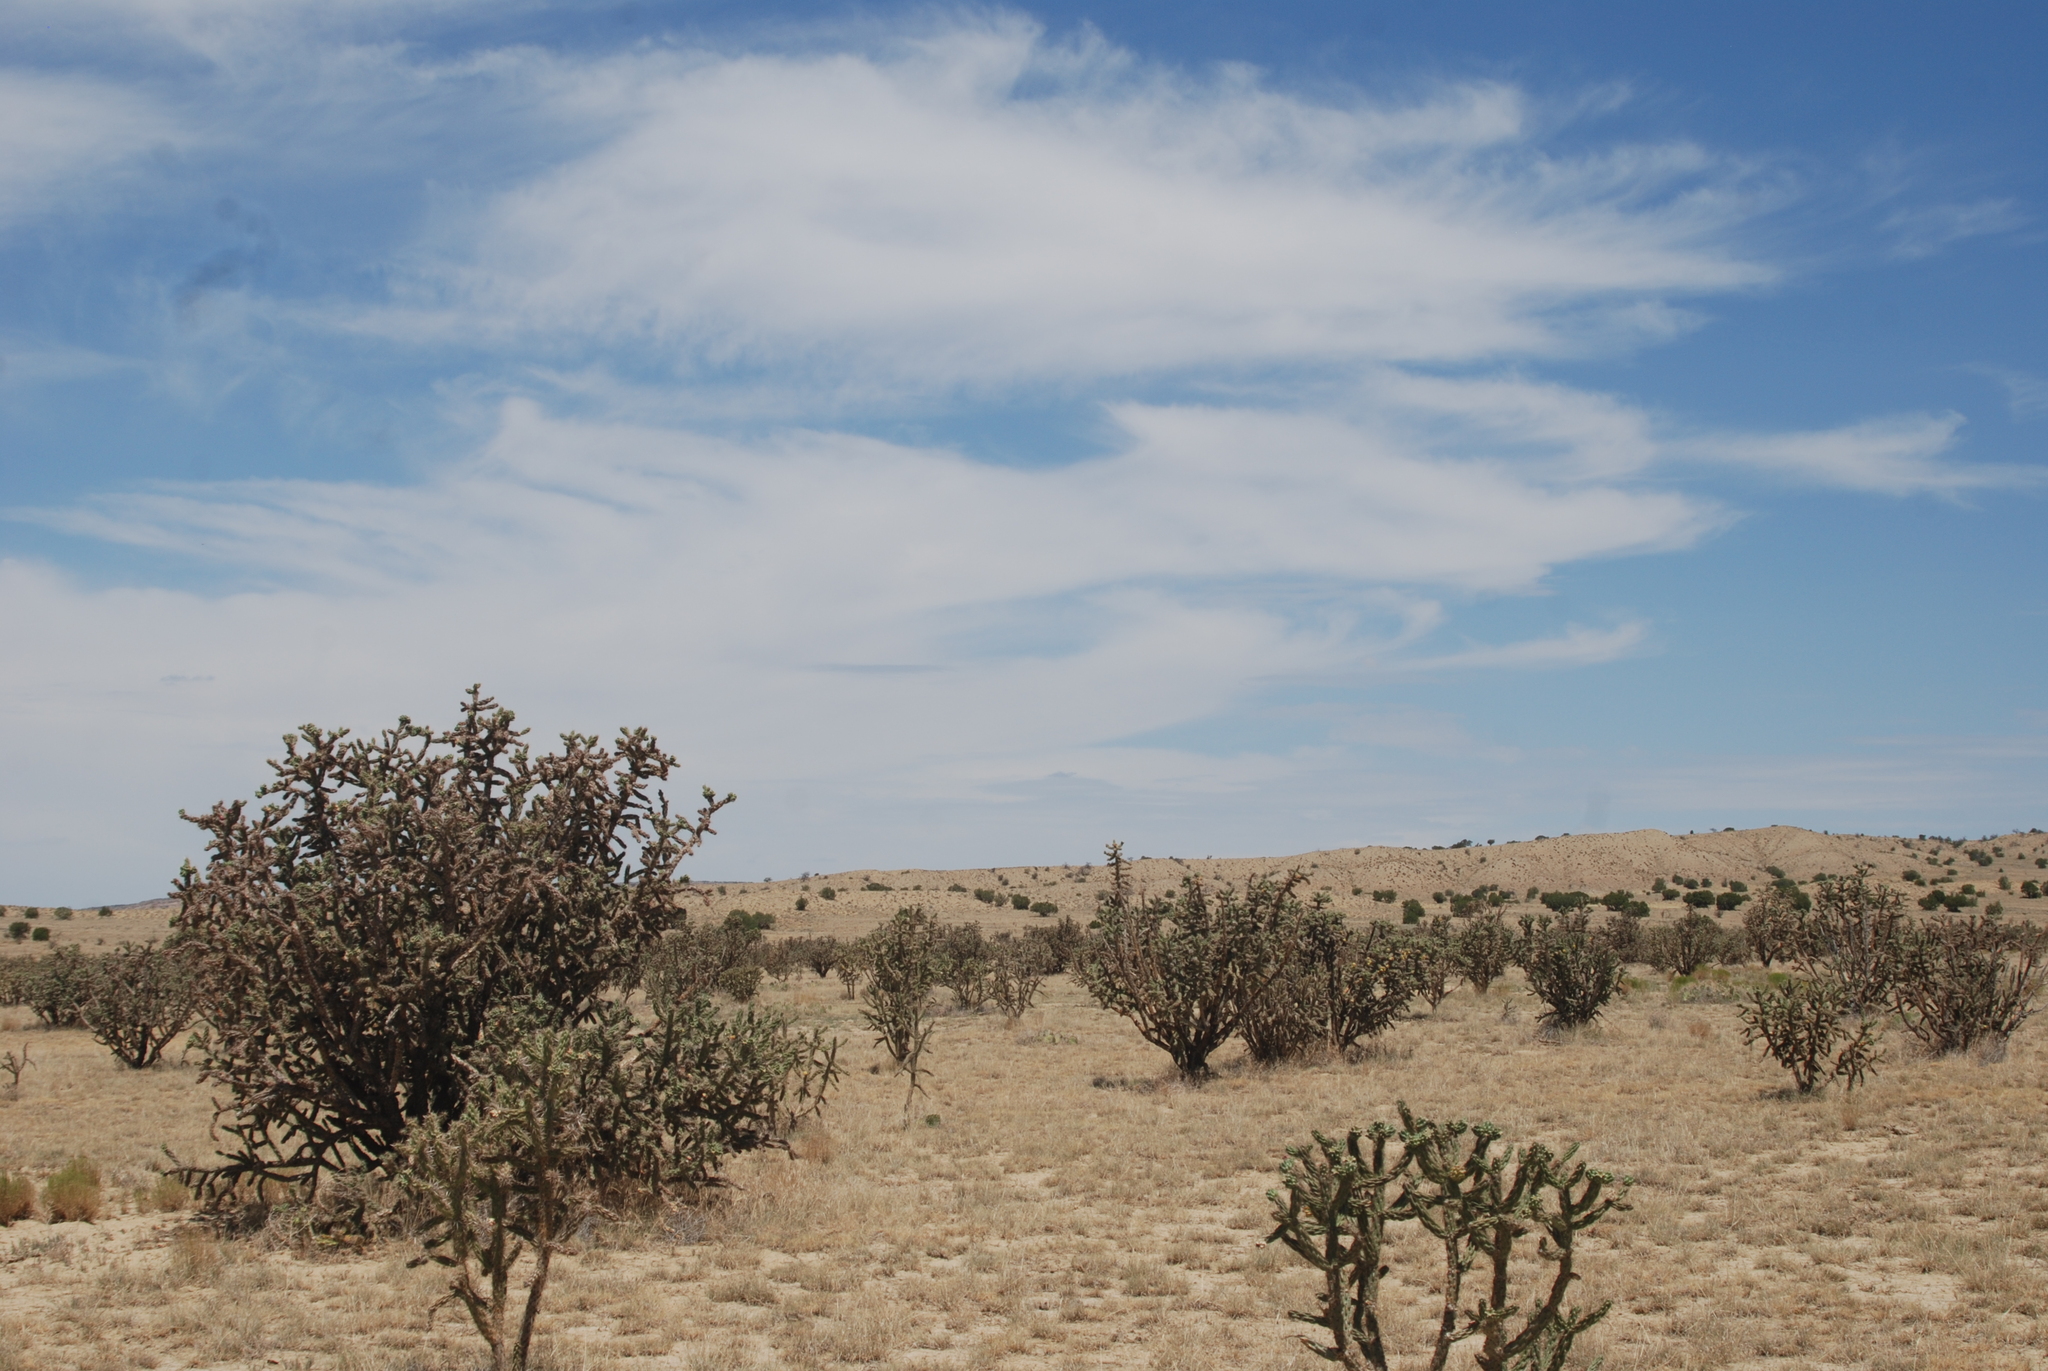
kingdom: Plantae
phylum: Tracheophyta
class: Magnoliopsida
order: Caryophyllales
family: Cactaceae
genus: Cylindropuntia
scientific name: Cylindropuntia imbricata
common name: Candelabrum cactus
